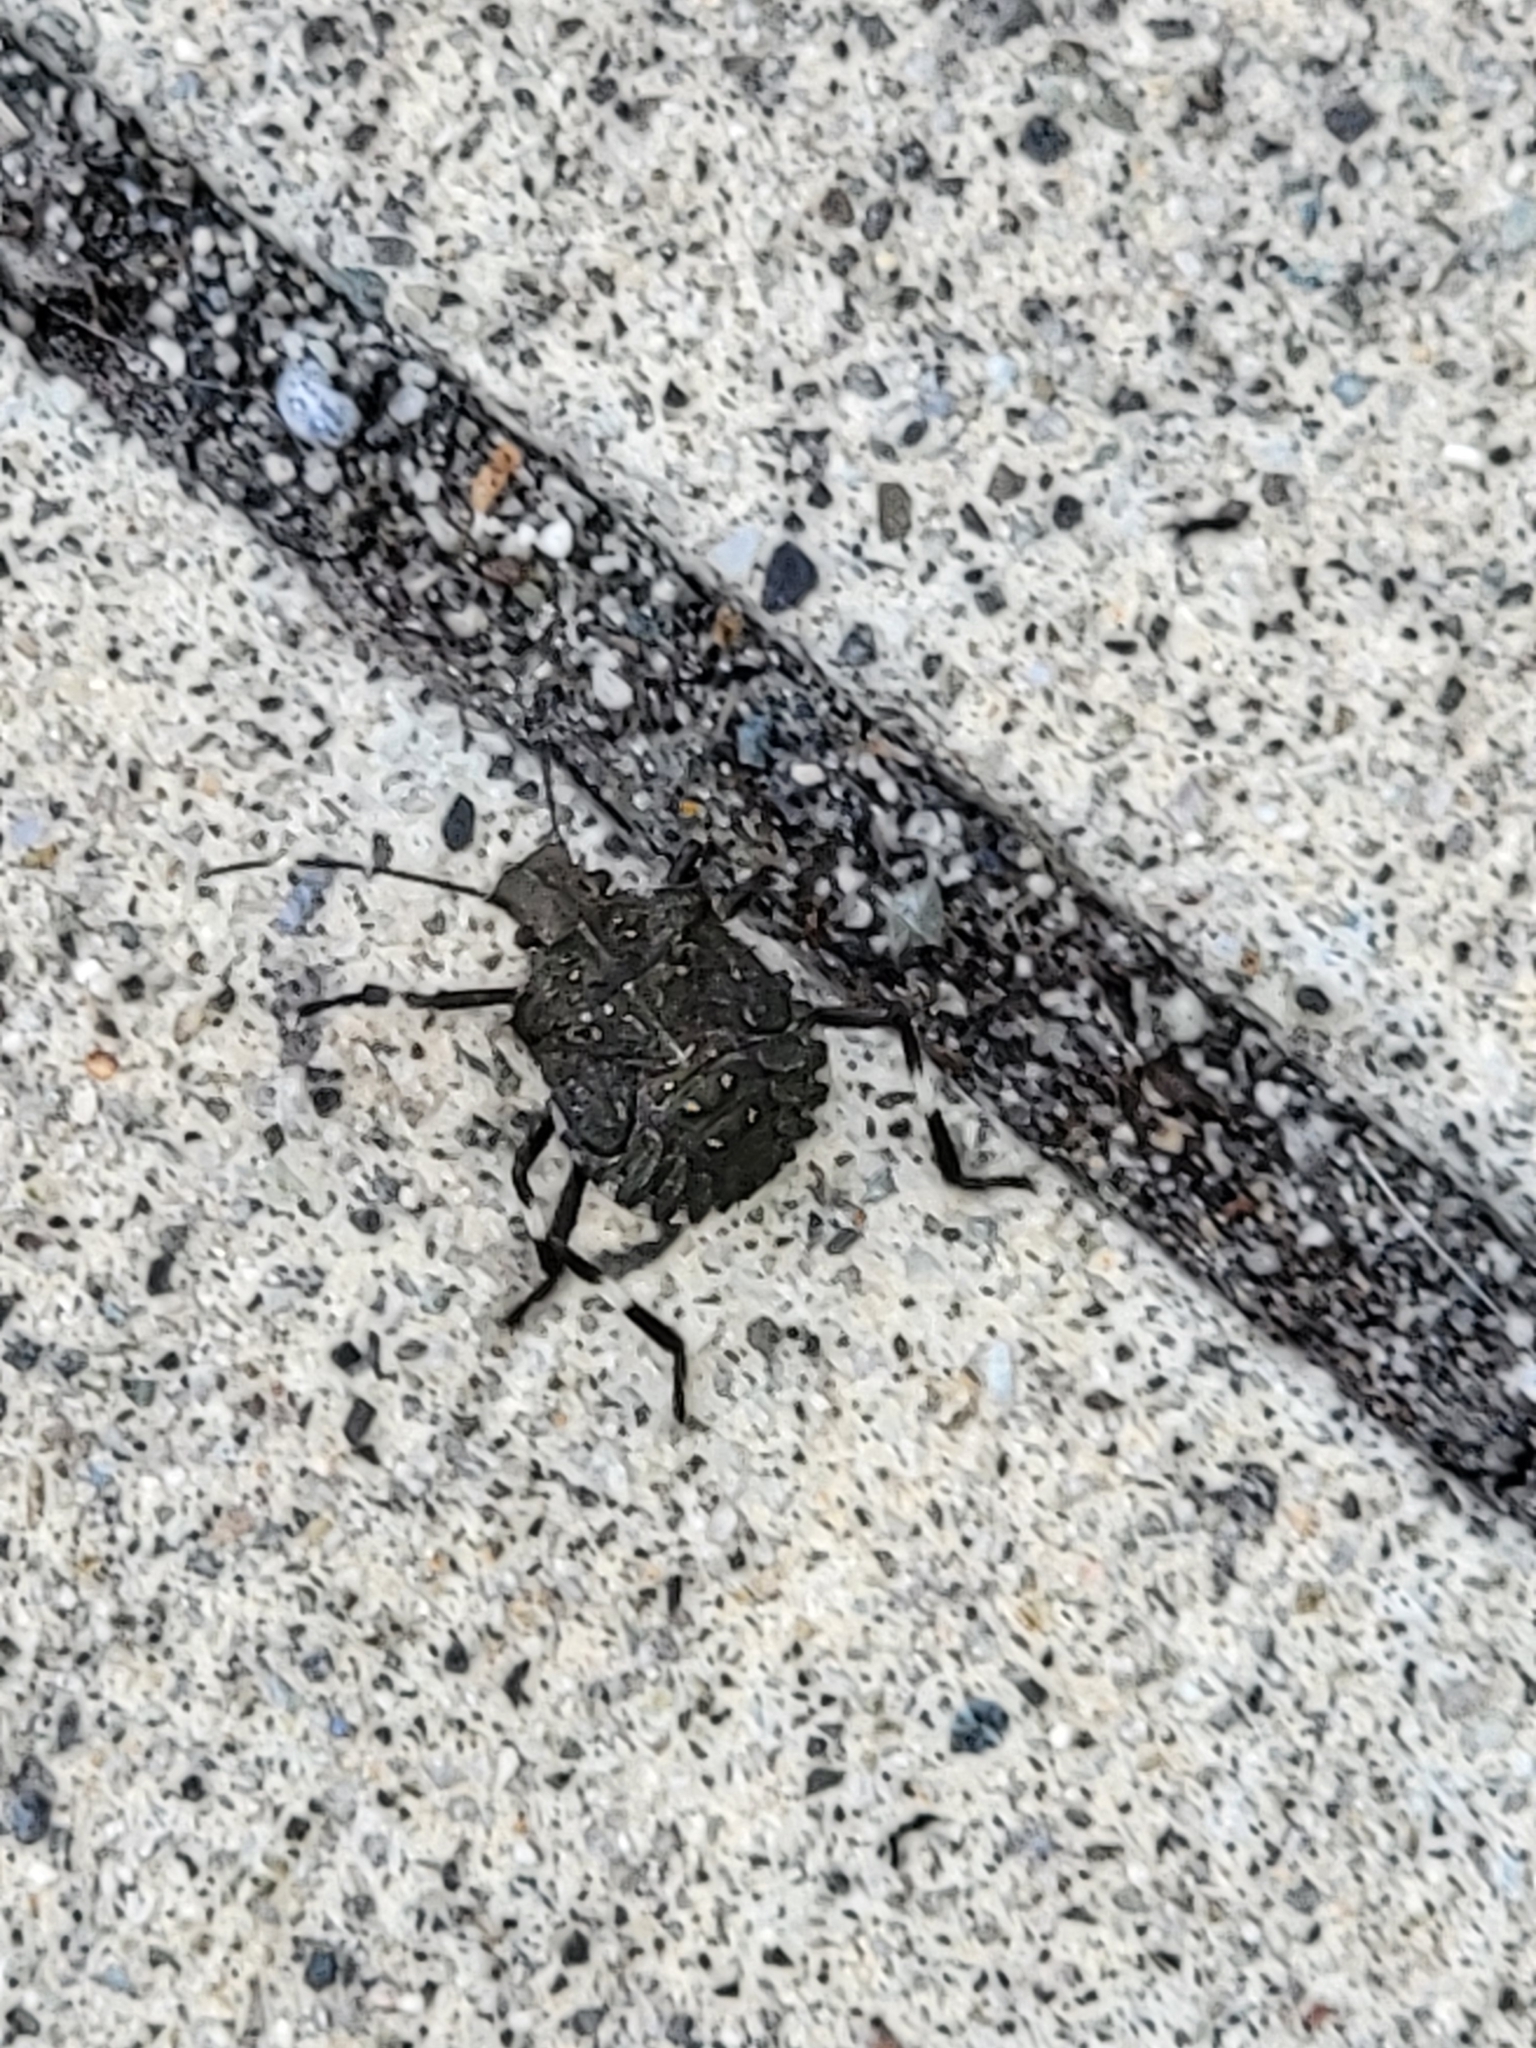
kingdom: Animalia
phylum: Arthropoda
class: Insecta
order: Hemiptera
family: Pentatomidae
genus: Halyomorpha
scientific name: Halyomorpha halys
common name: Brown marmorated stink bug
